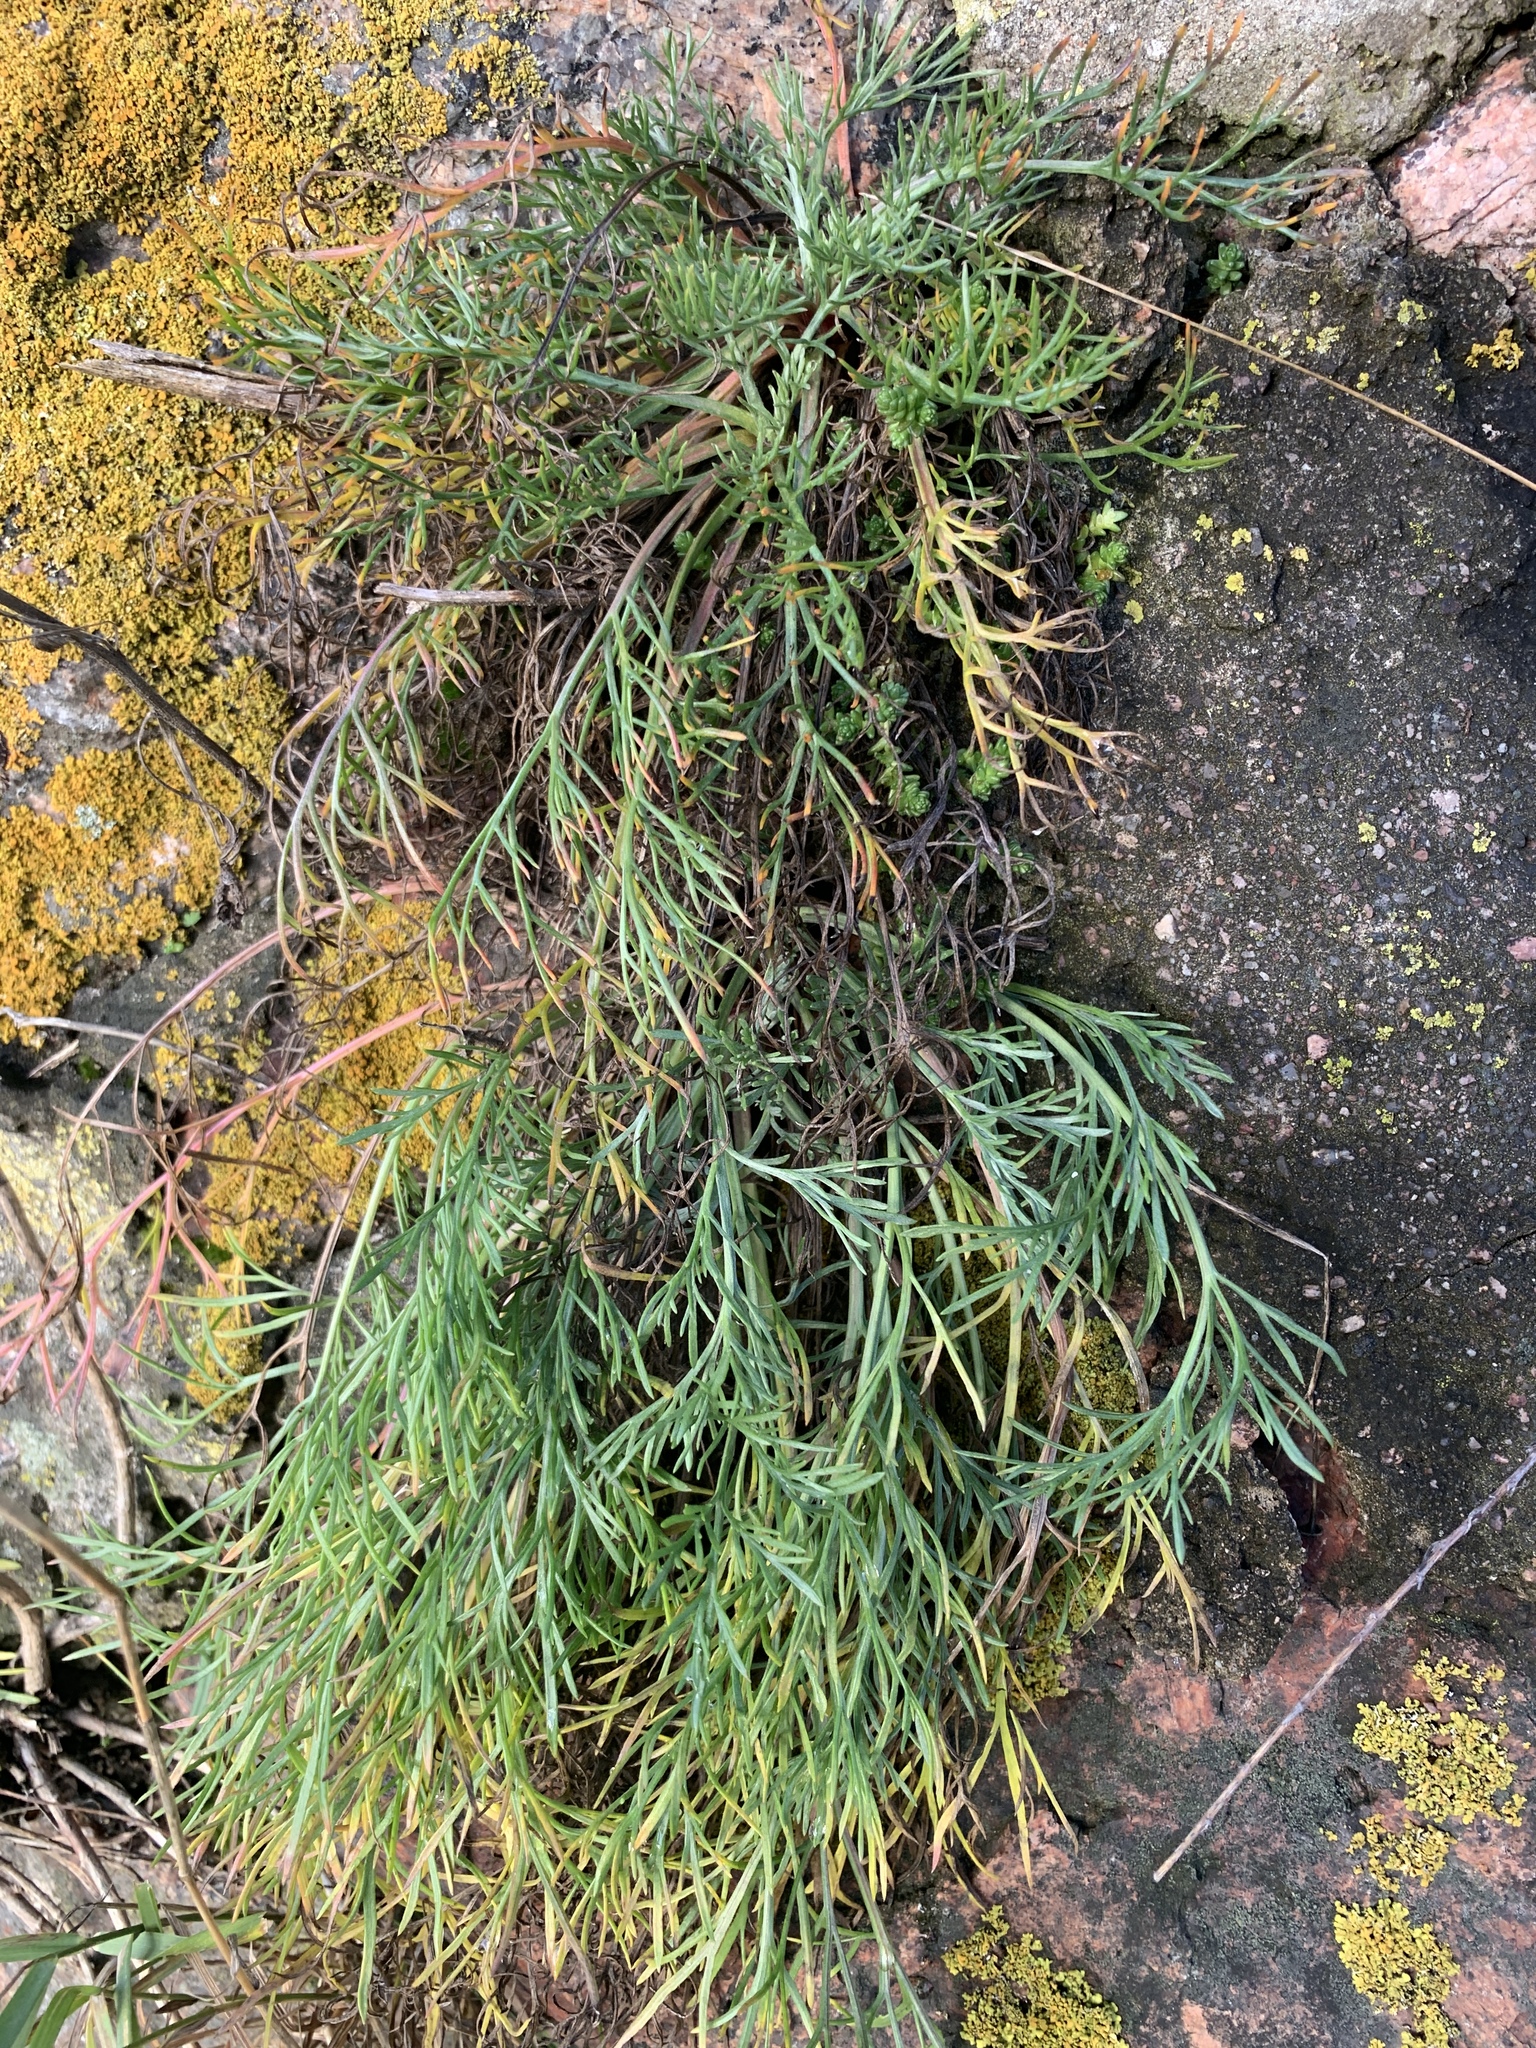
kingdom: Plantae
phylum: Tracheophyta
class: Magnoliopsida
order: Asterales
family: Asteraceae
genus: Artemisia
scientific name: Artemisia campestris
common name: Field wormwood
